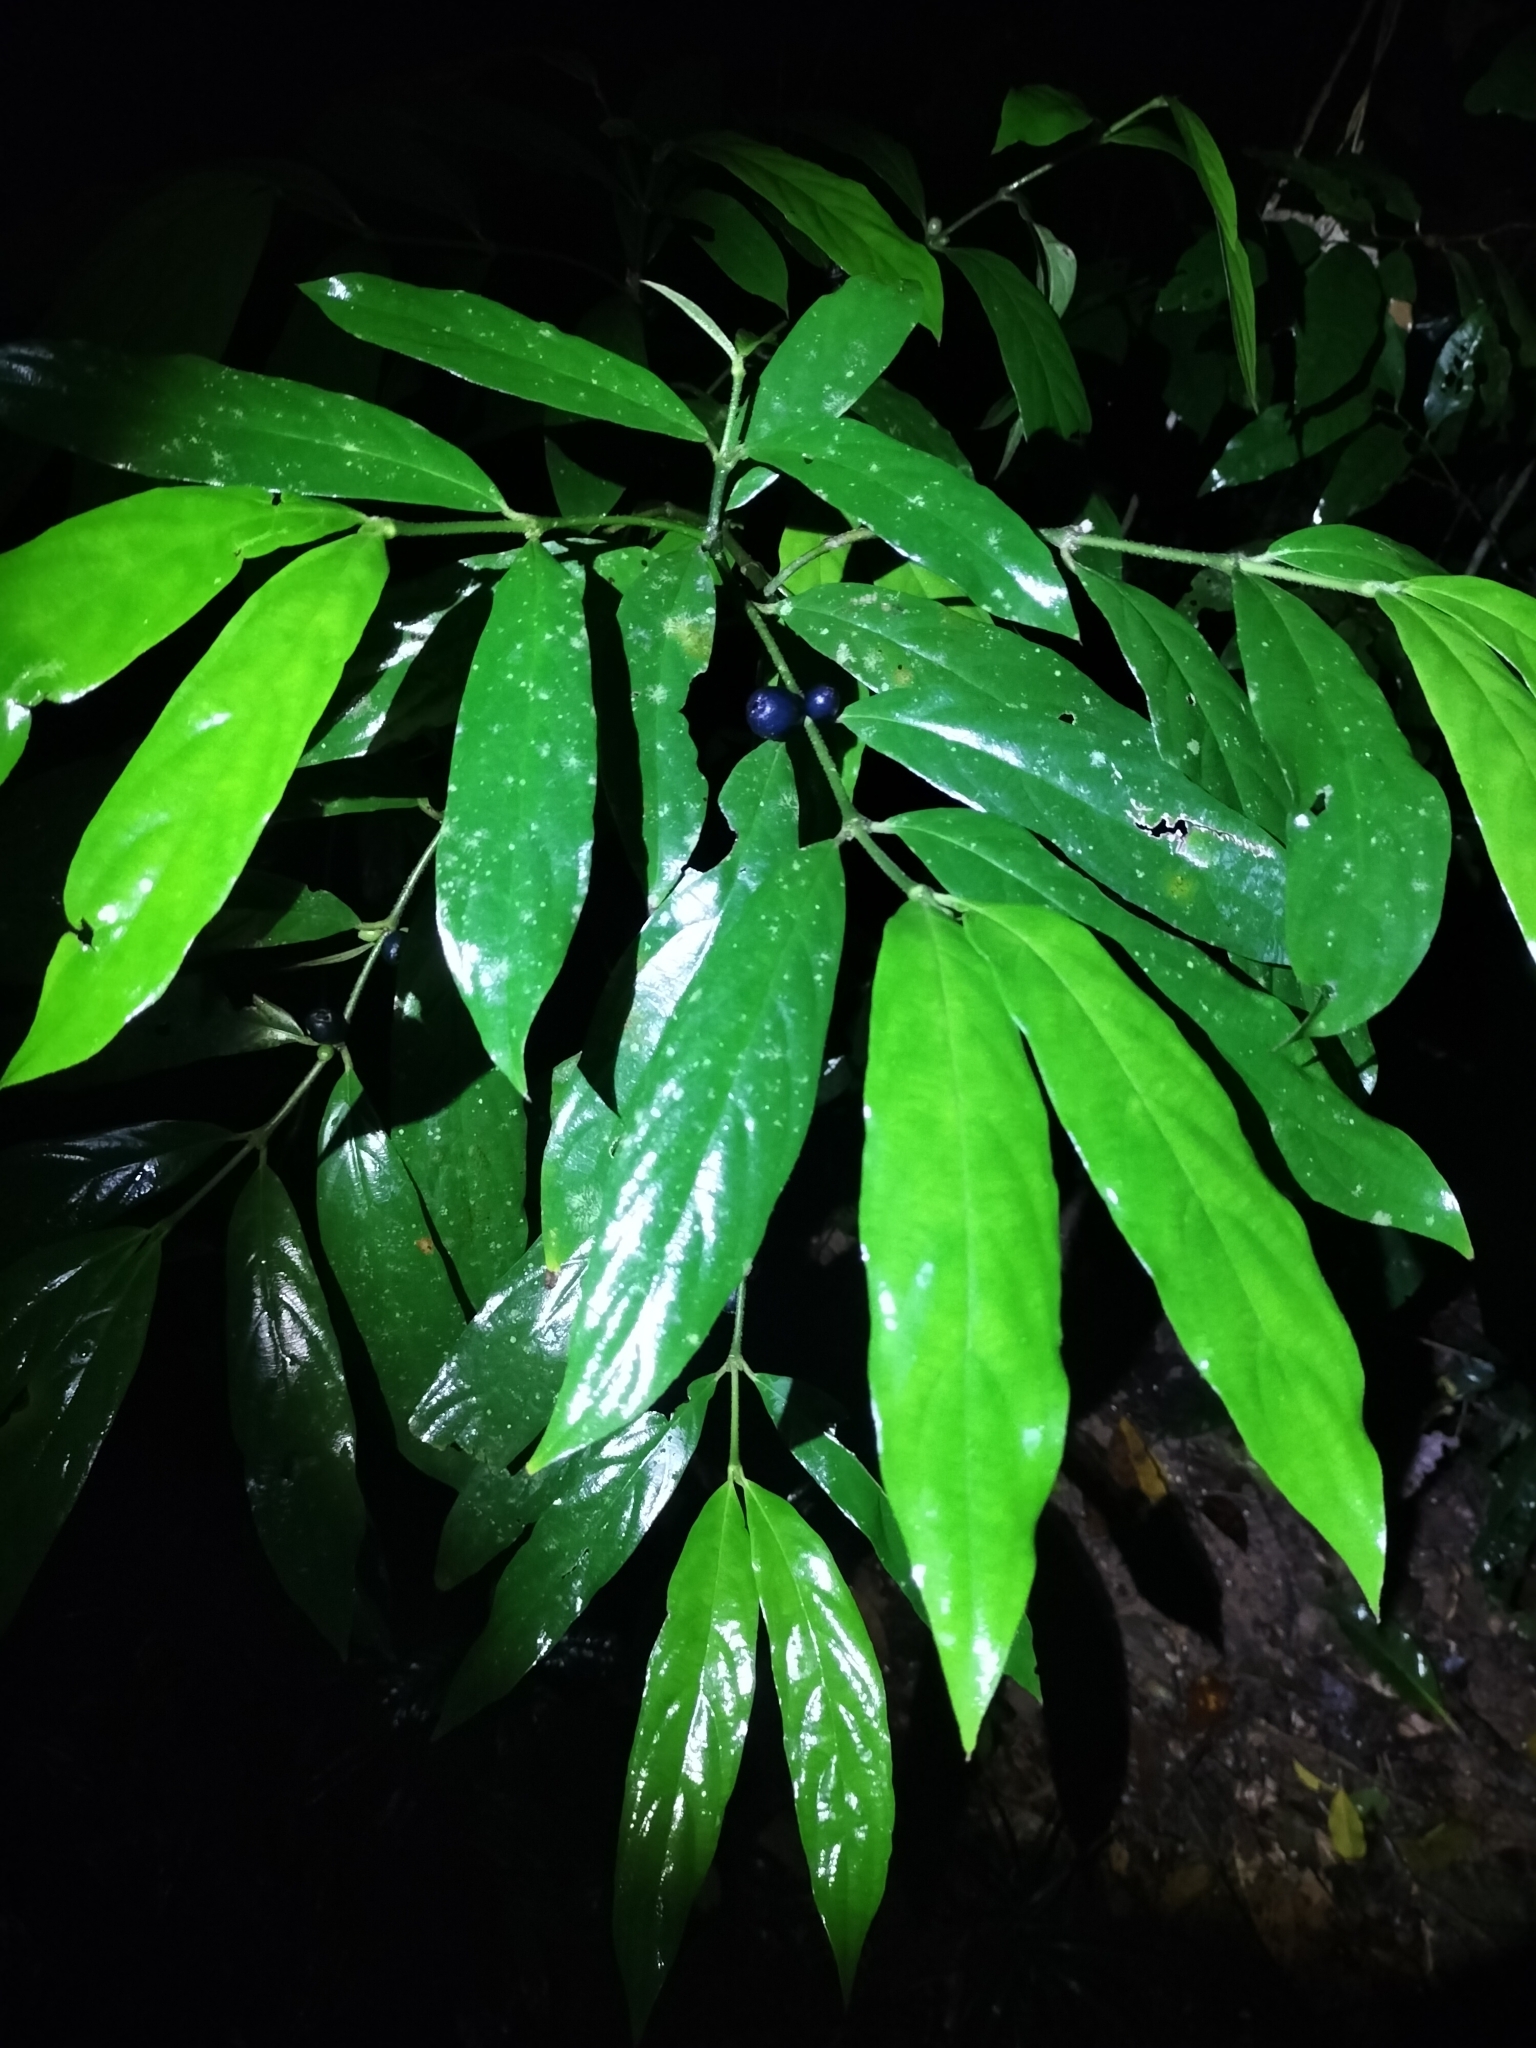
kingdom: Plantae
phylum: Tracheophyta
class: Magnoliopsida
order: Gentianales
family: Rubiaceae
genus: Lasianthus
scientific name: Lasianthus chlorocarpus
